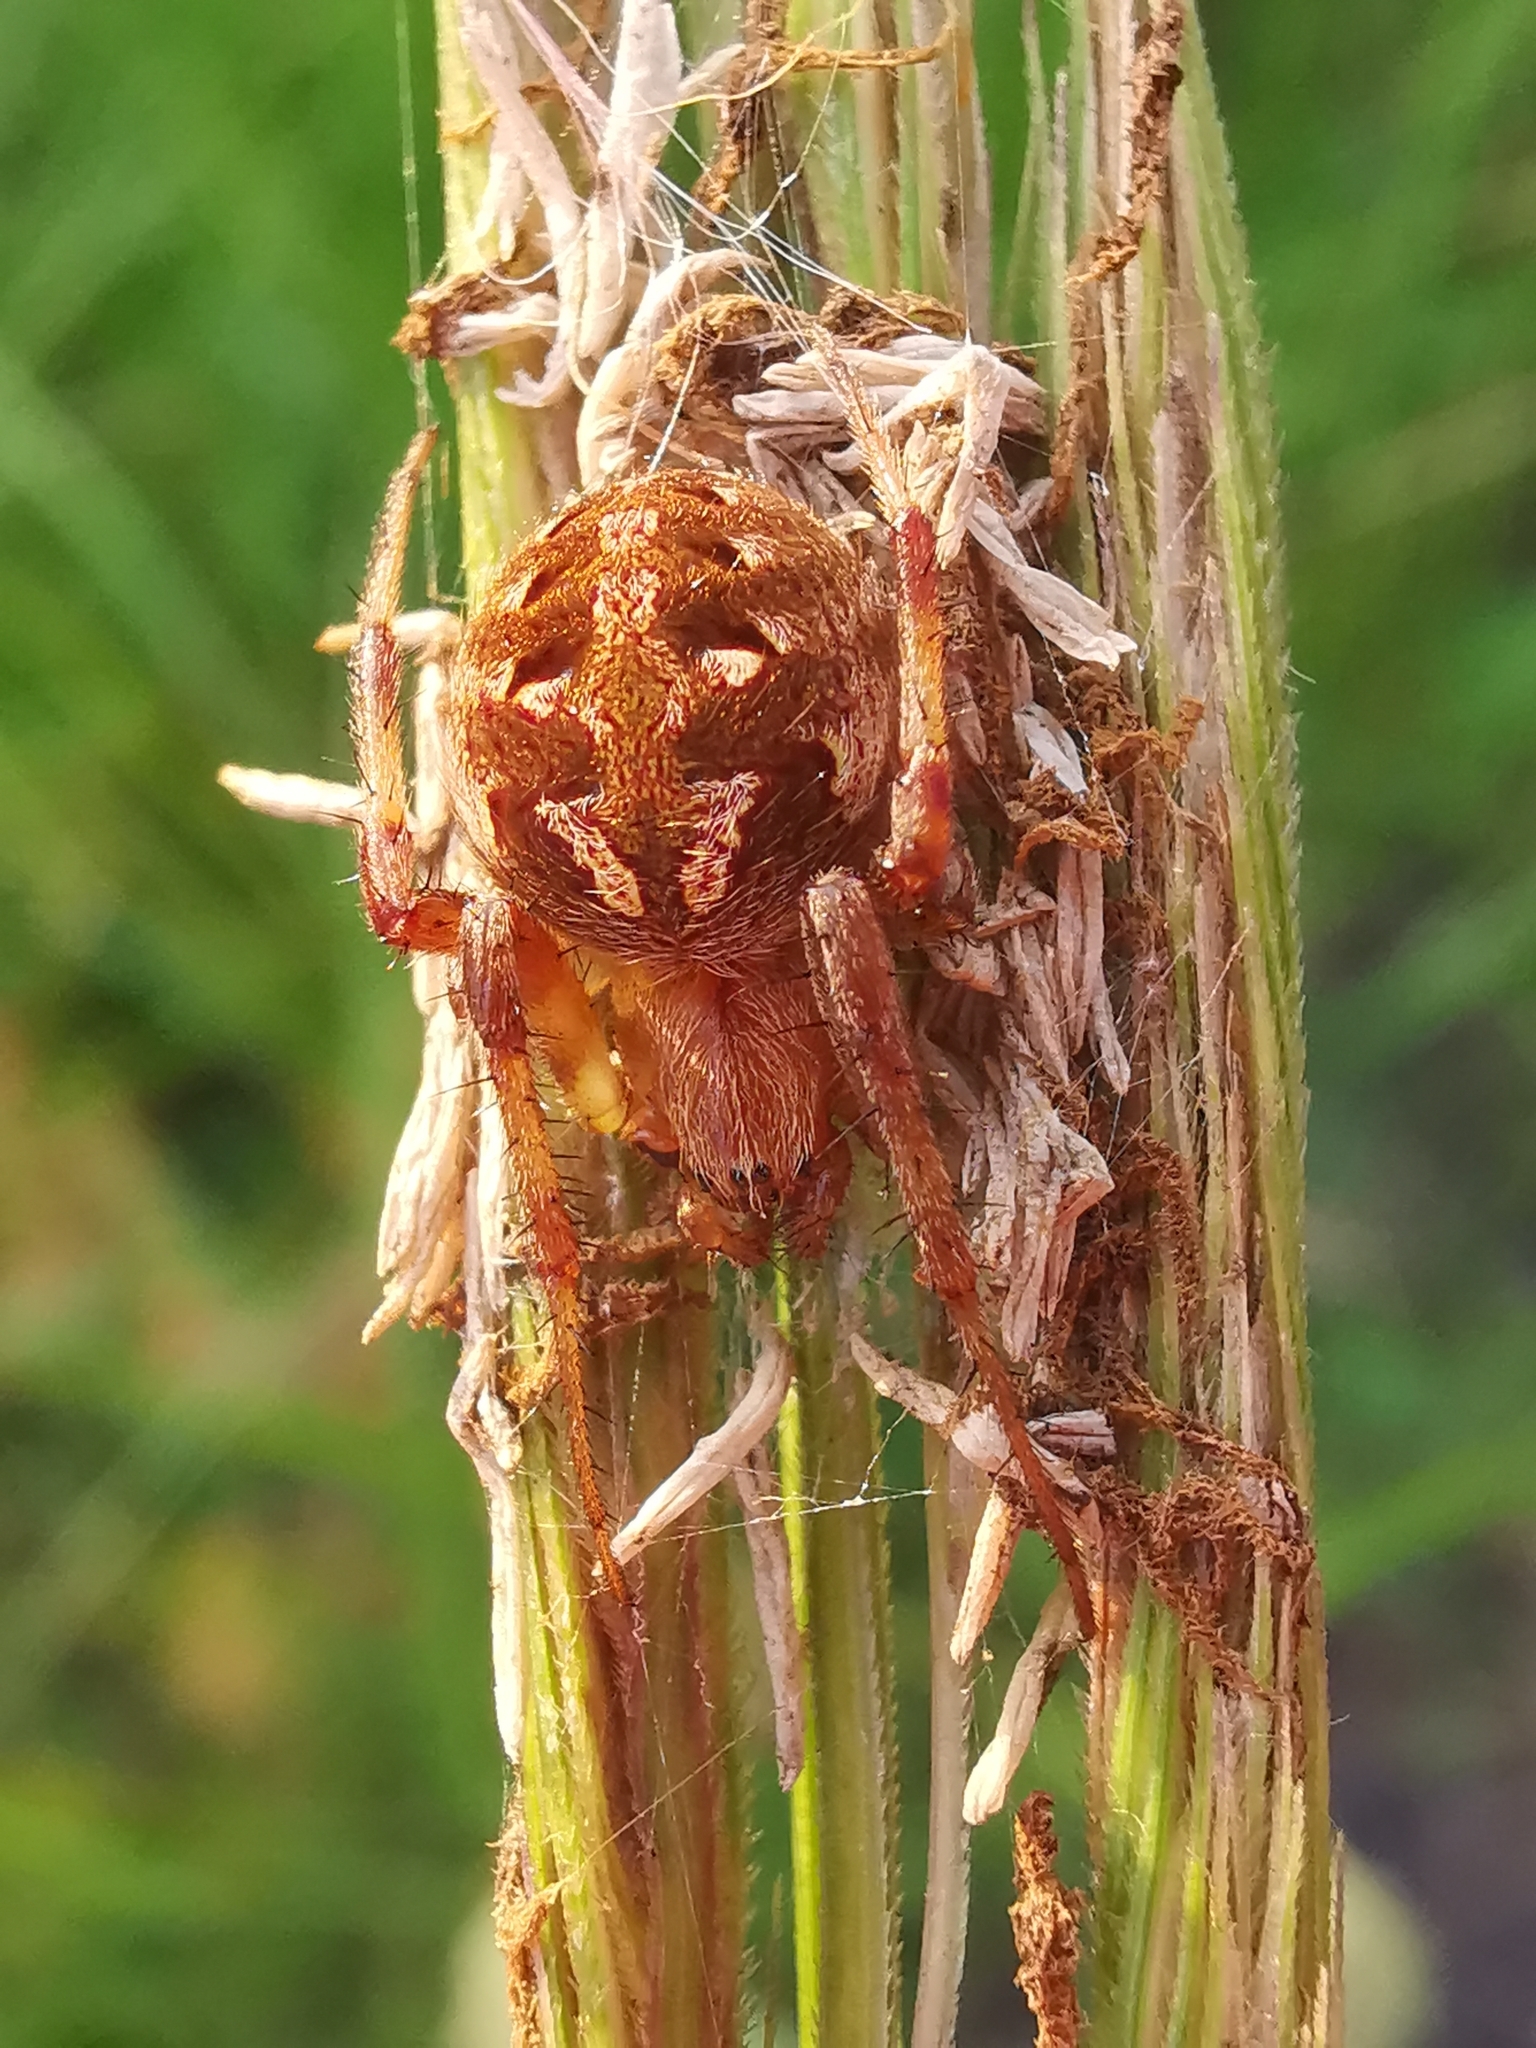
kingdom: Animalia
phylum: Arthropoda
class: Arachnida
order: Araneae
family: Araneidae
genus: Neoscona
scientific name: Neoscona arabesca
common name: Orb weavers
